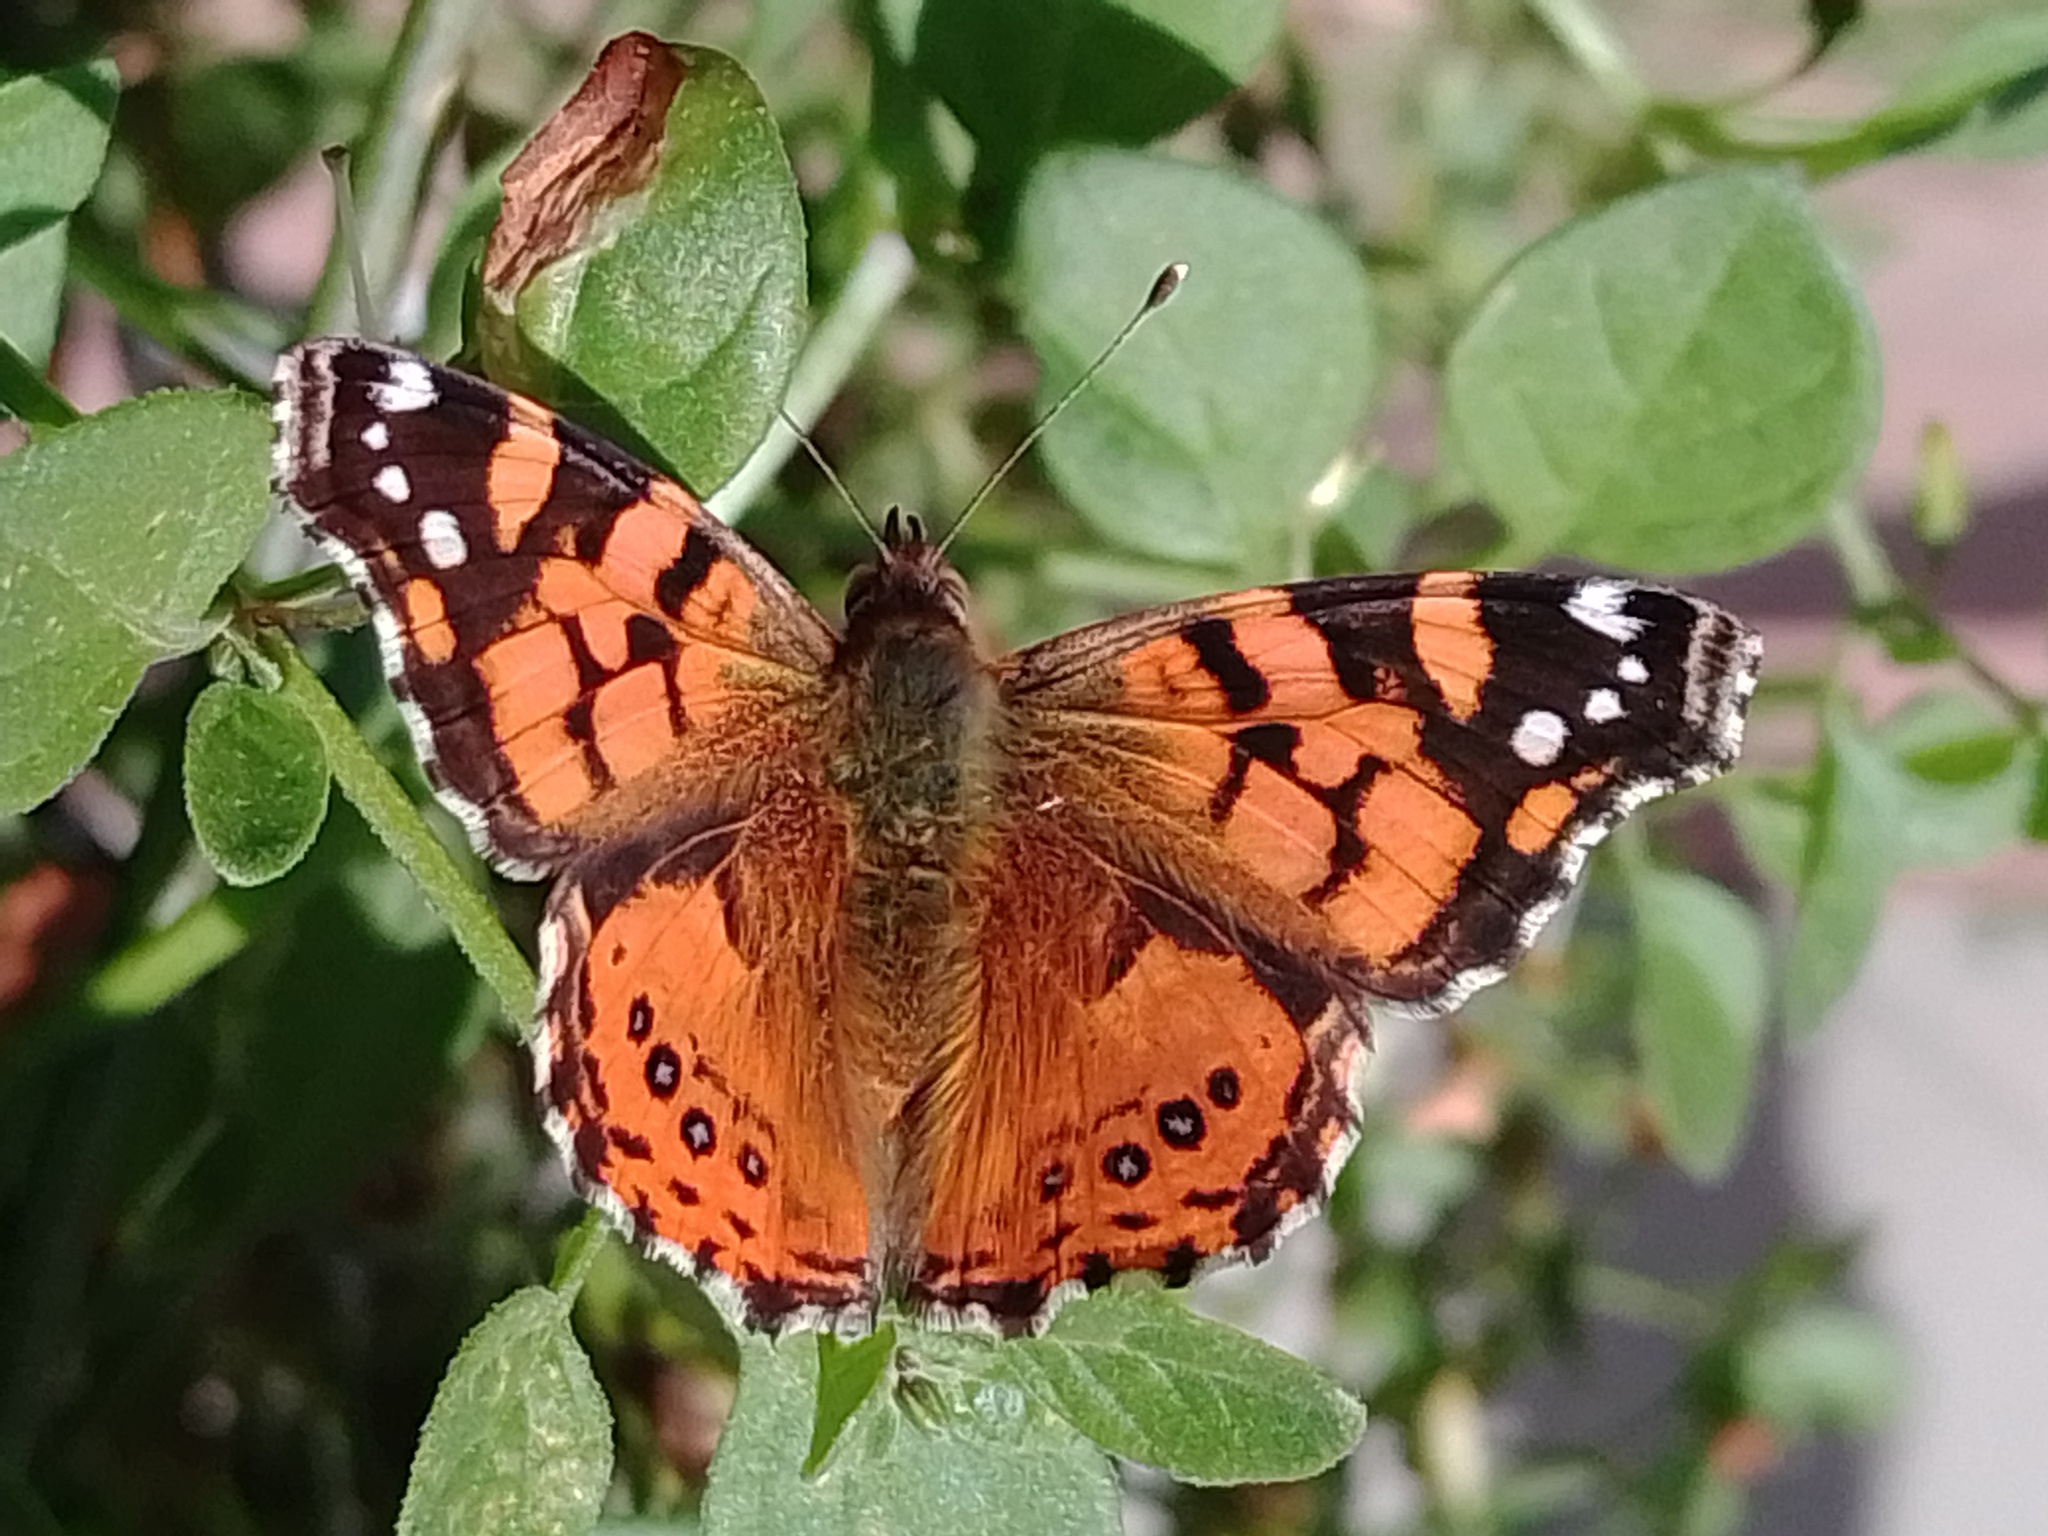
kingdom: Animalia
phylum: Arthropoda
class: Insecta
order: Lepidoptera
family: Nymphalidae
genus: Vanessa
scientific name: Vanessa carye
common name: Subtropical lady
